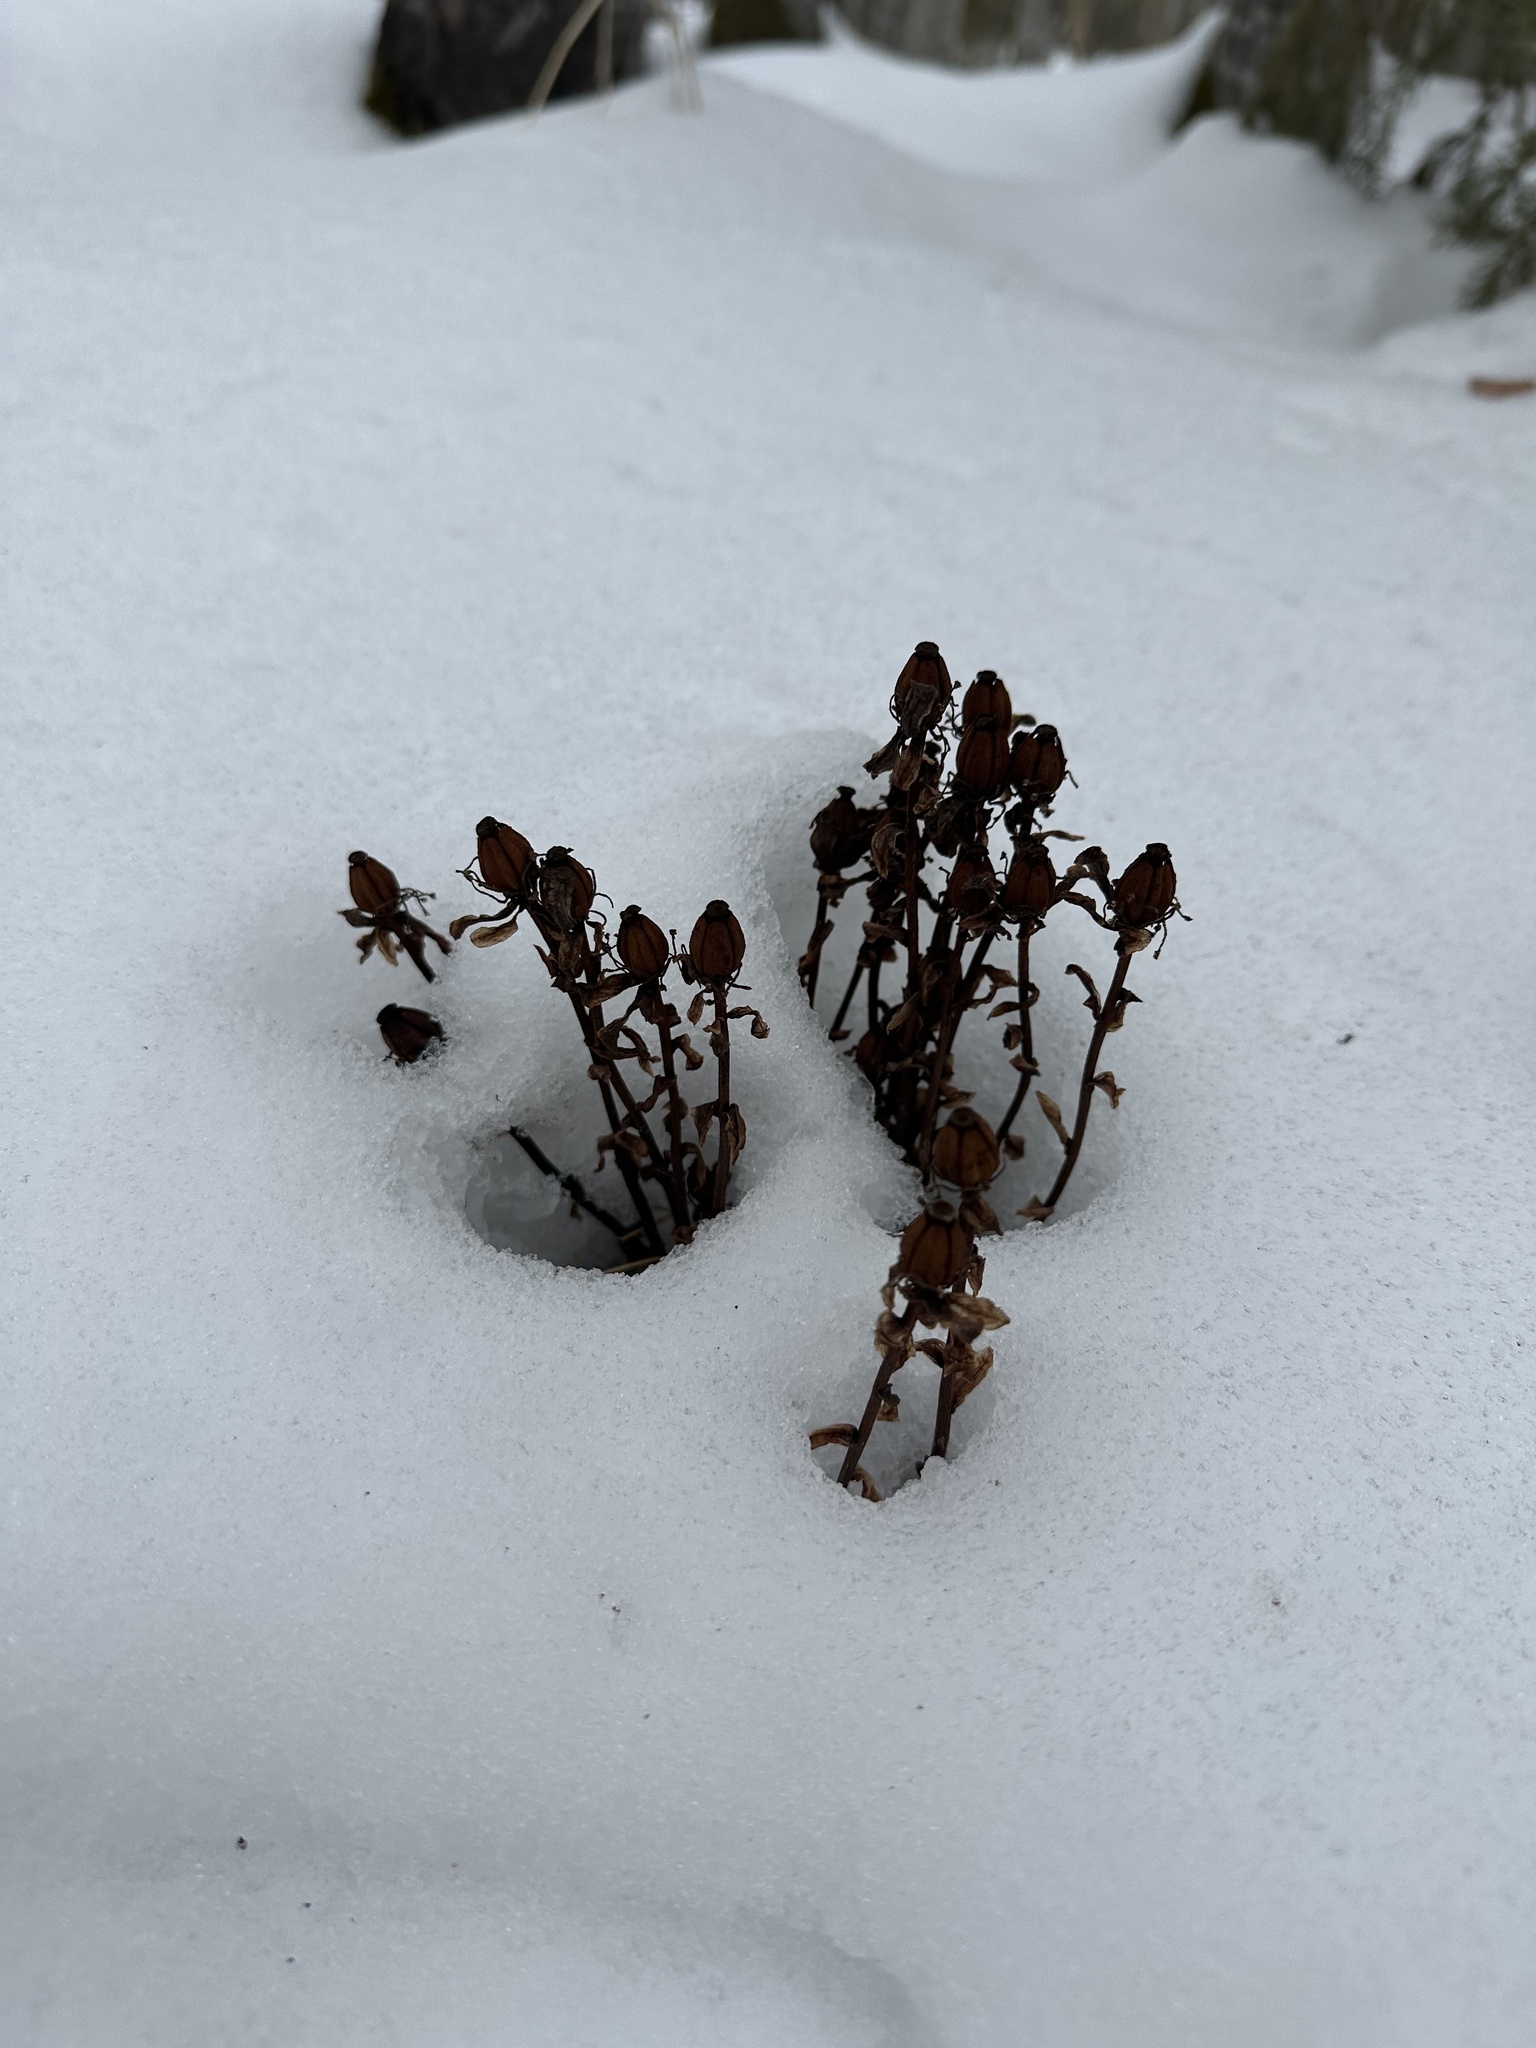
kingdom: Plantae
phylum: Tracheophyta
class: Magnoliopsida
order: Ericales
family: Ericaceae
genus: Monotropa
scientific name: Monotropa uniflora
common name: Convulsion root
